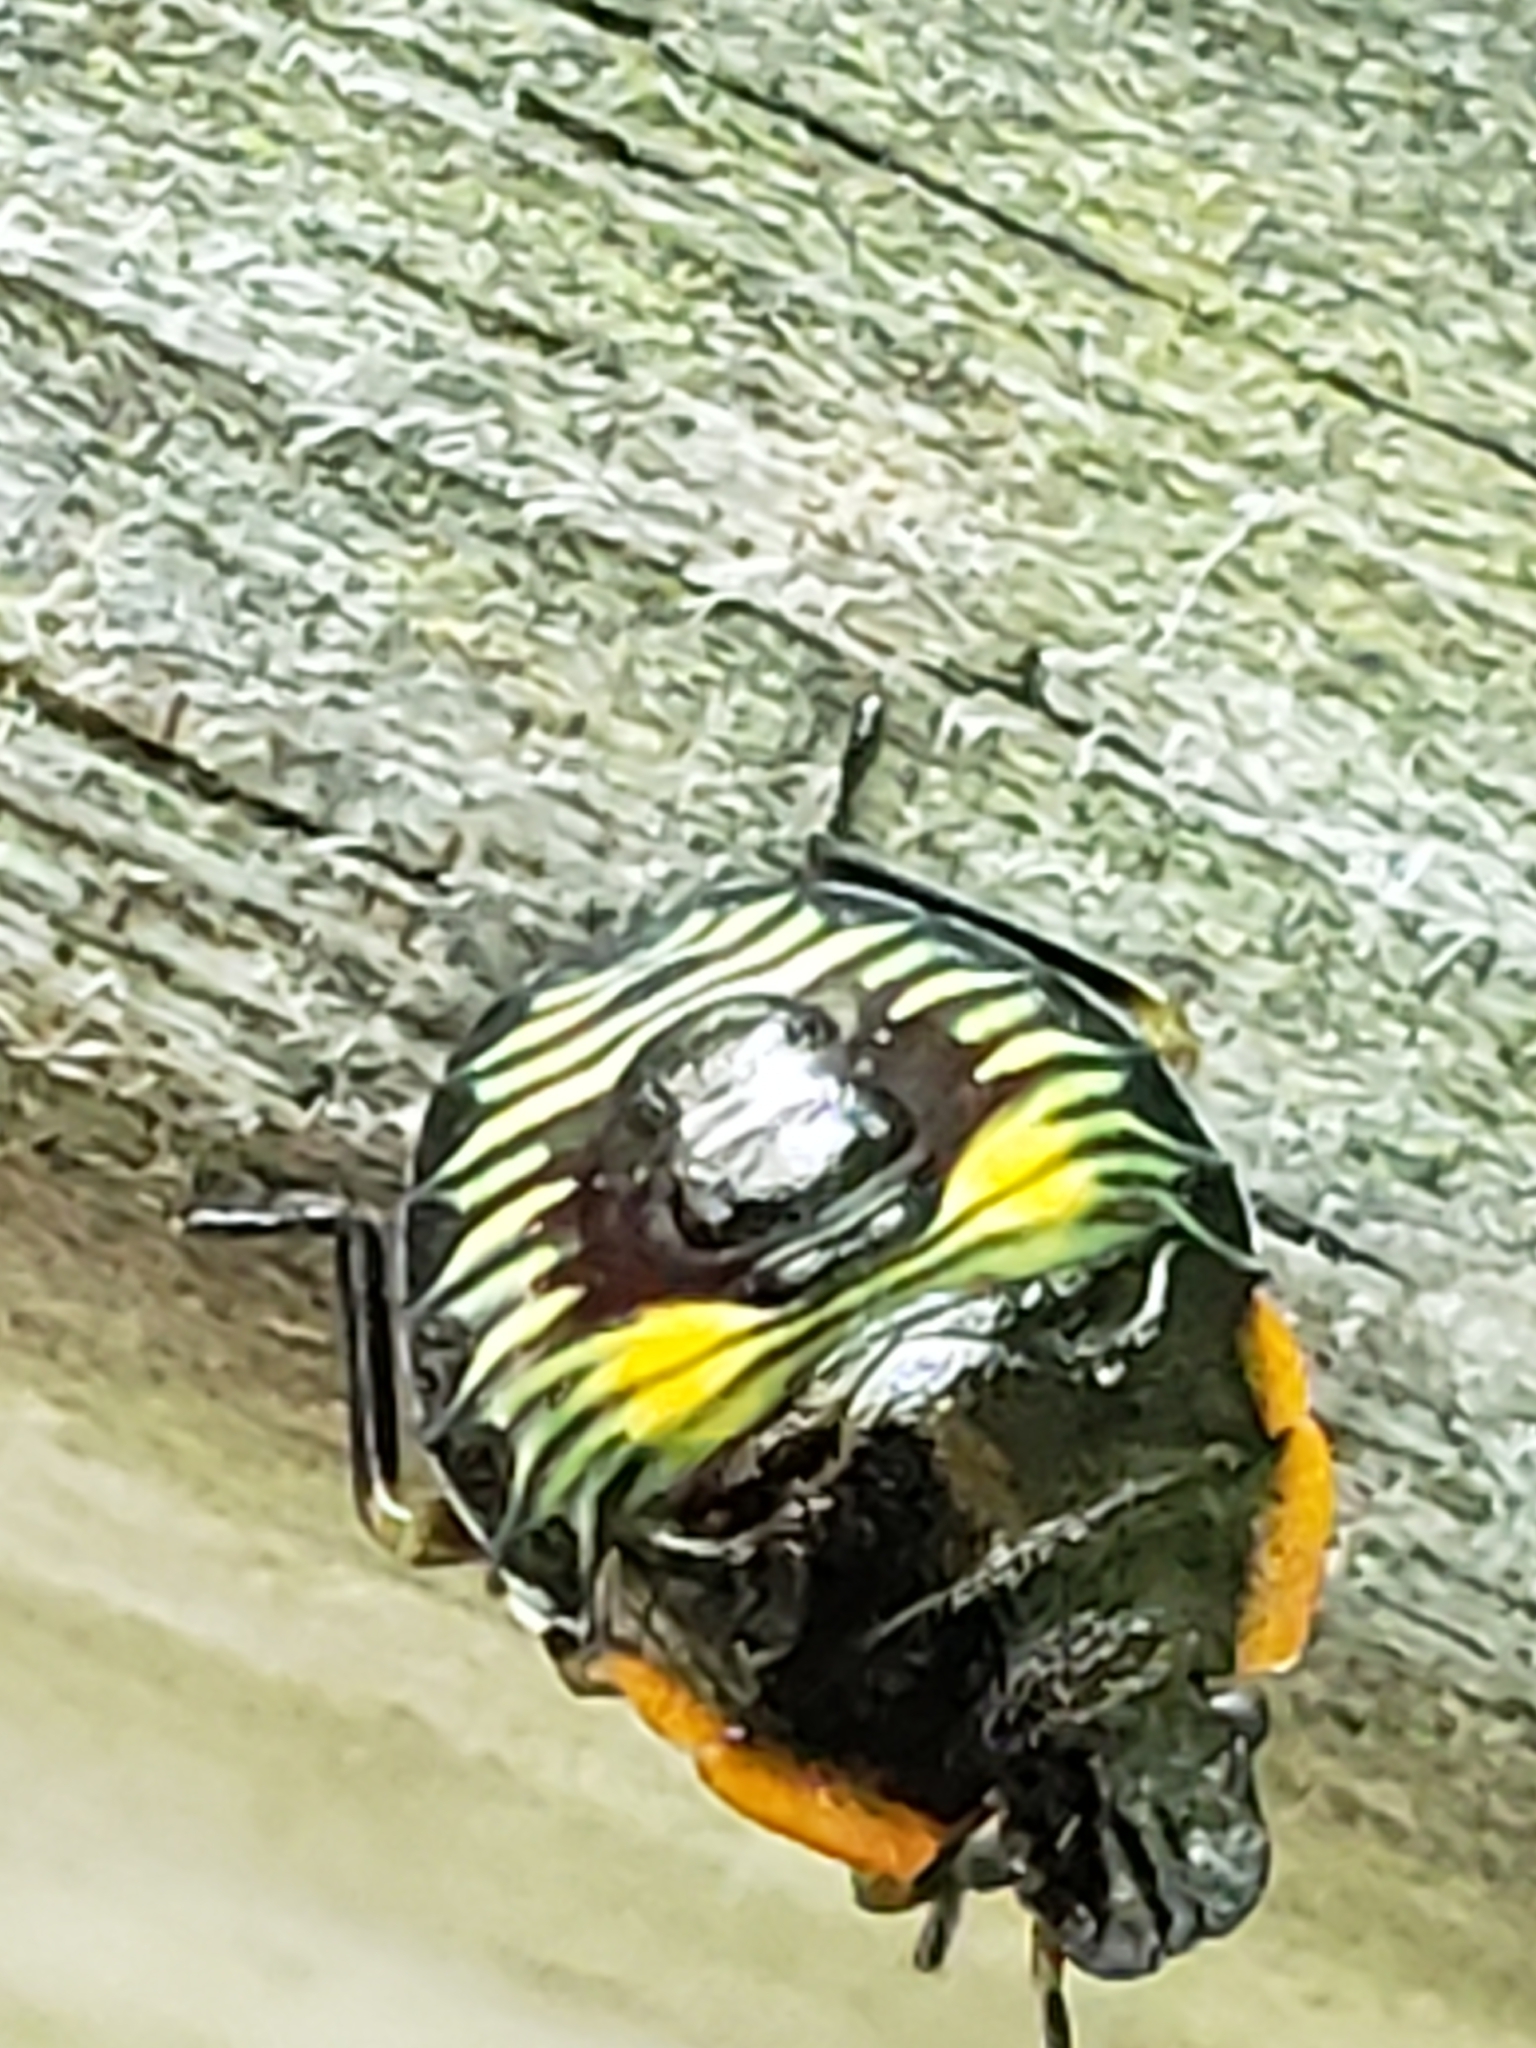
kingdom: Animalia
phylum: Arthropoda
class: Insecta
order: Hemiptera
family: Pentatomidae
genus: Chinavia
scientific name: Chinavia hilaris
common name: Green stink bug
